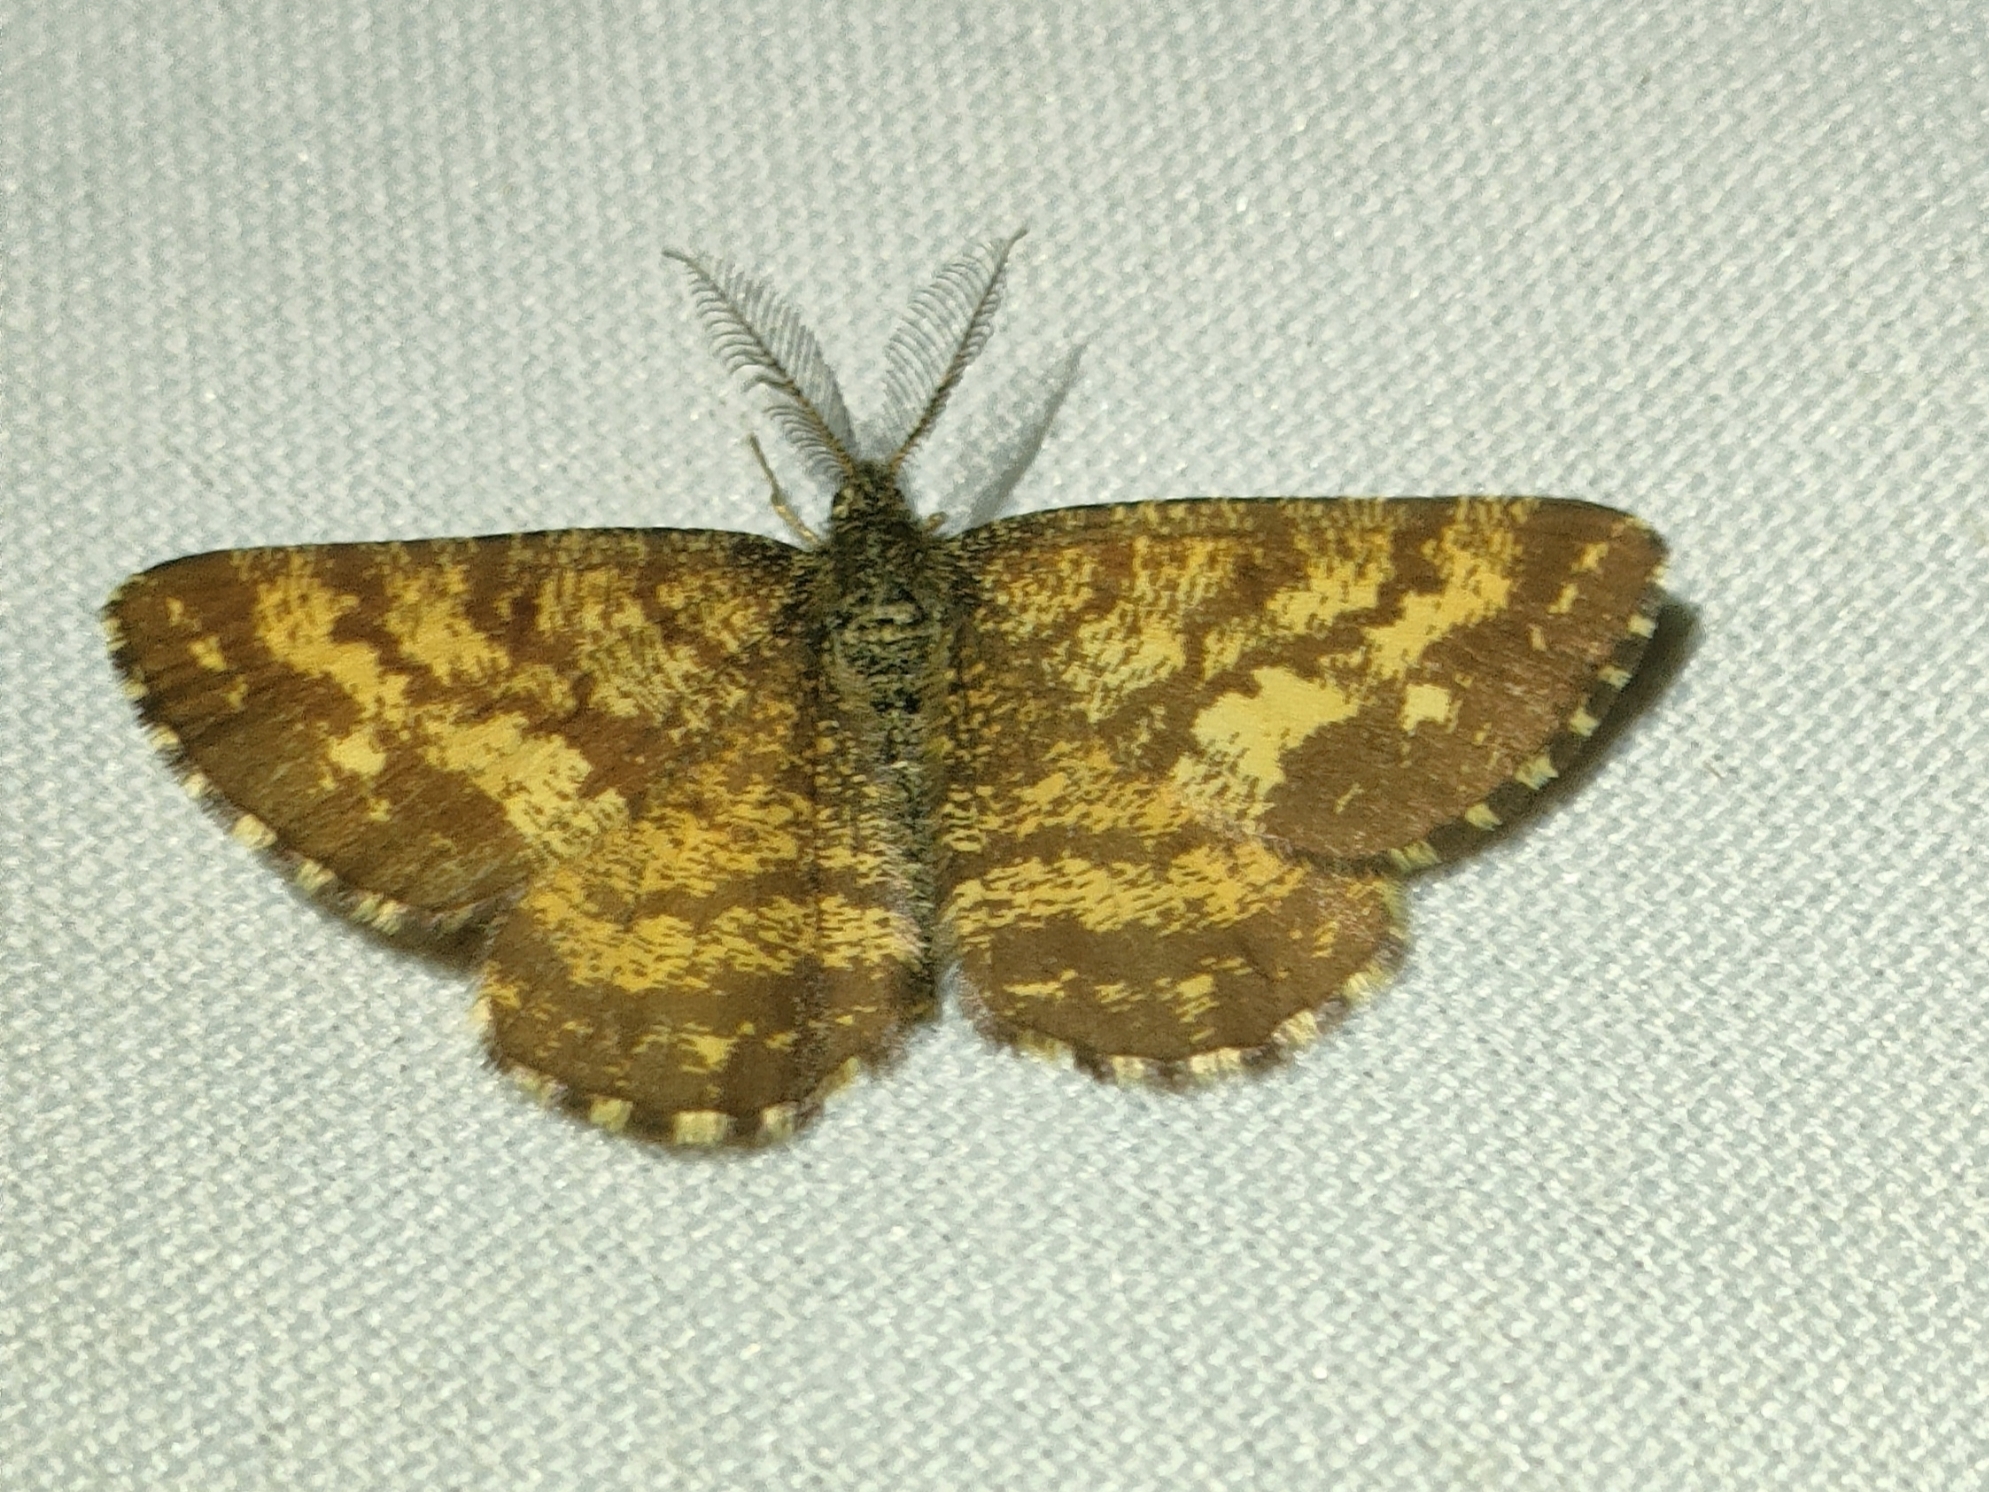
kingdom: Animalia
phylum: Arthropoda
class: Insecta
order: Lepidoptera
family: Geometridae
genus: Ematurga
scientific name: Ematurga atomaria
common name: Common heath
